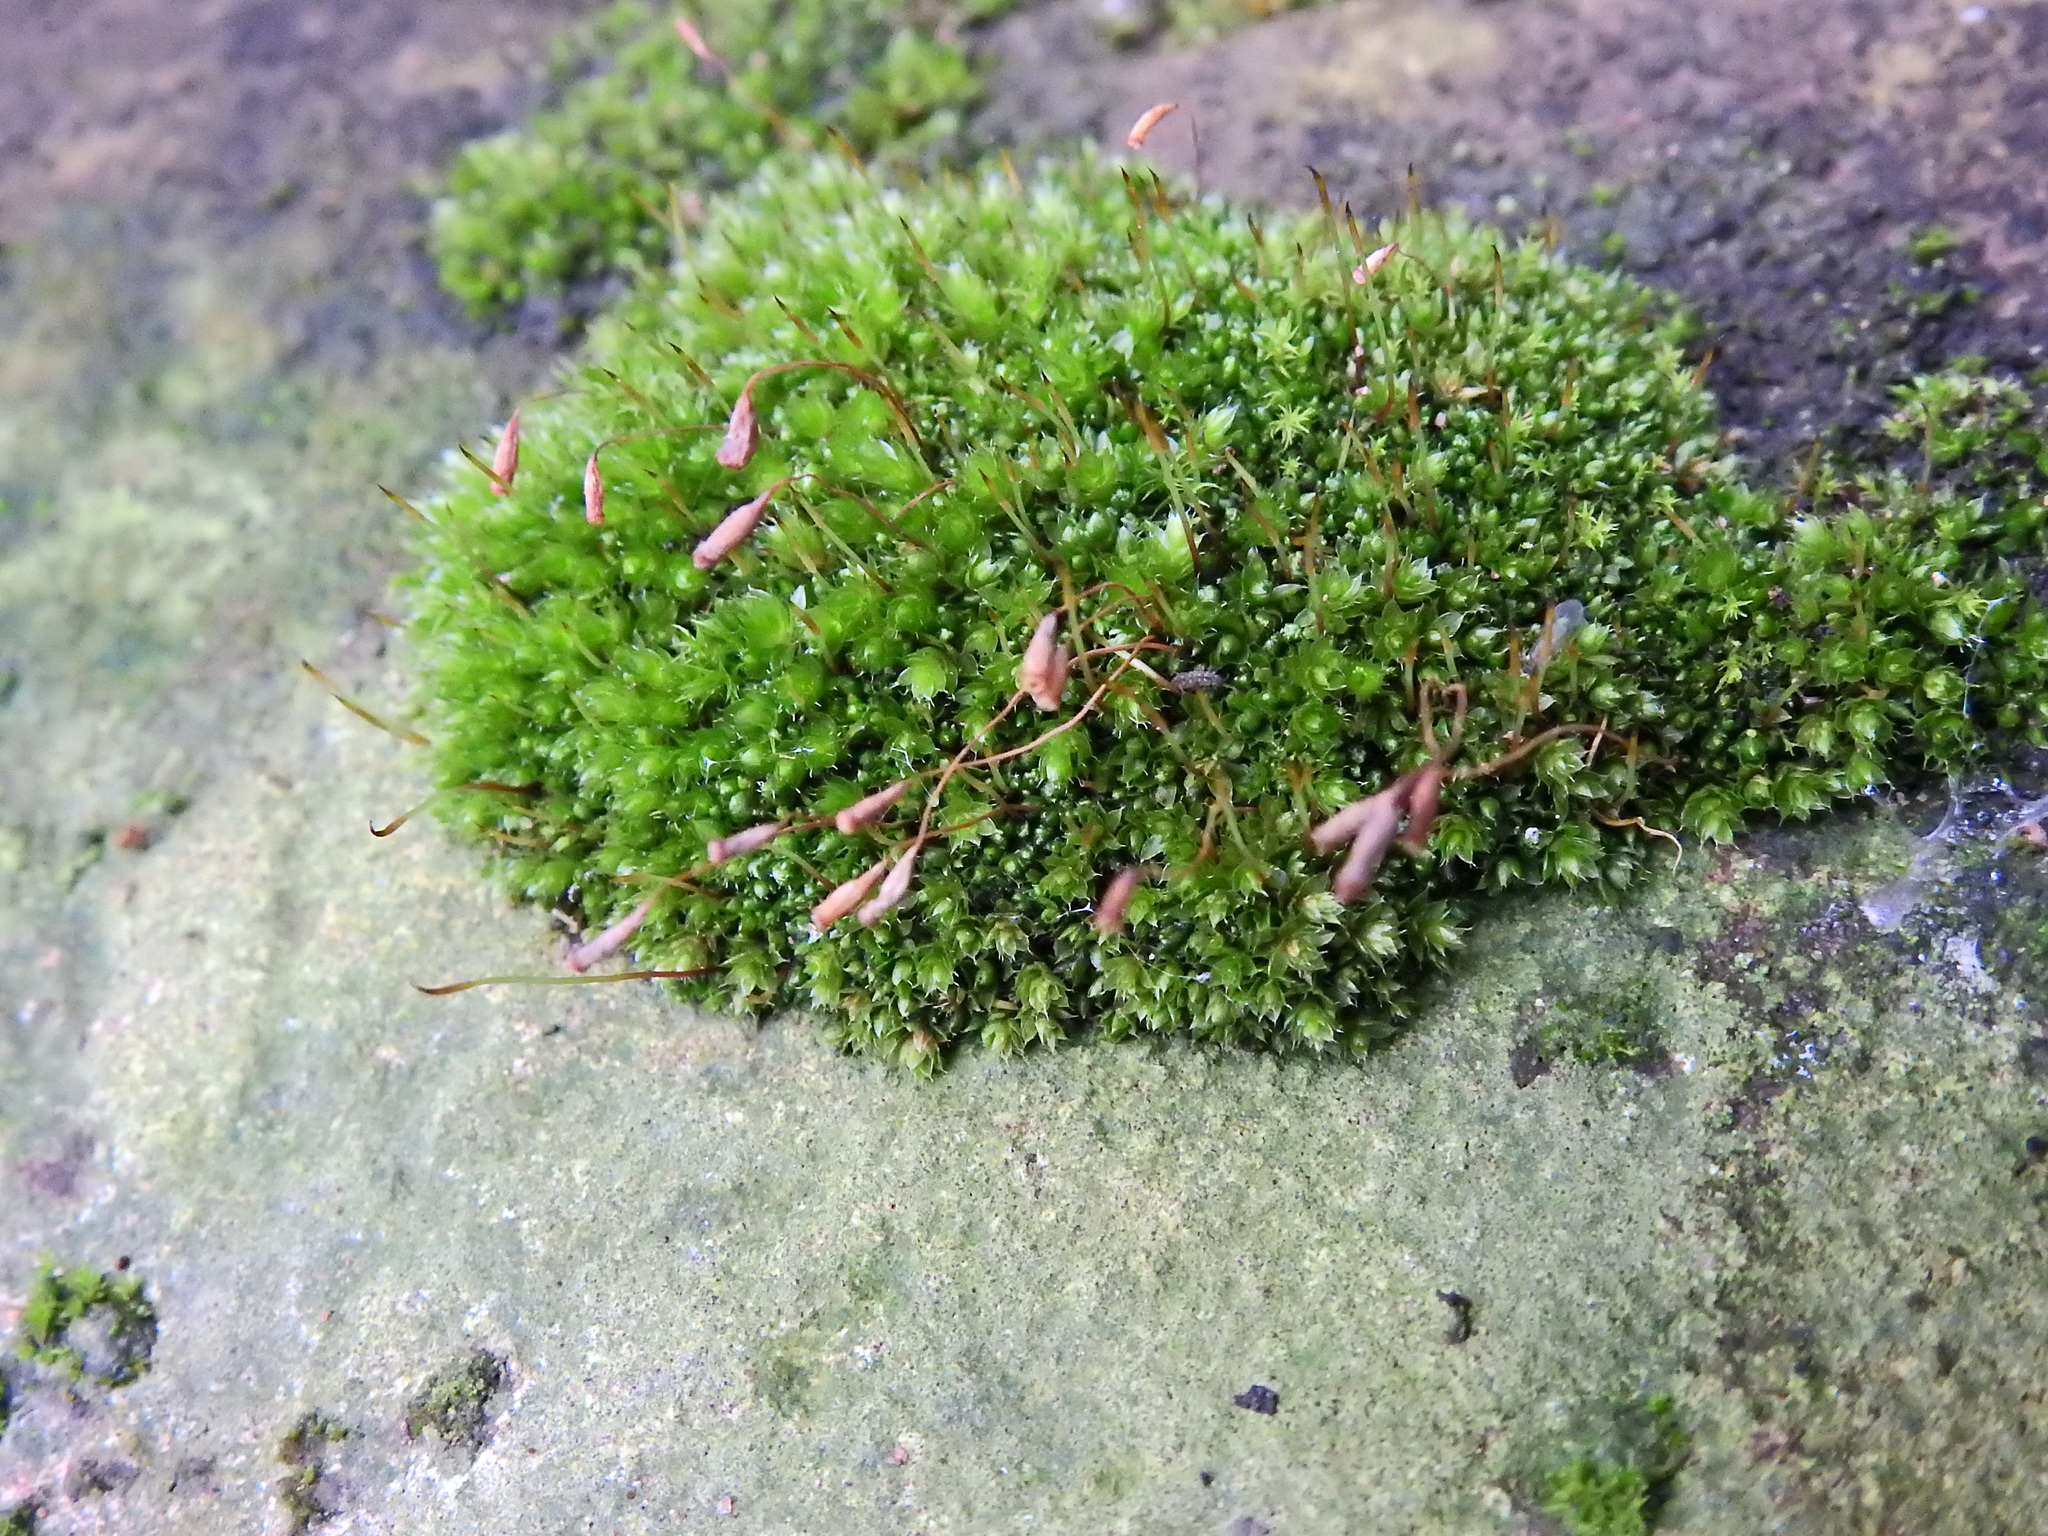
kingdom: Plantae
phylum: Bryophyta
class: Bryopsida
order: Bryales
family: Bryaceae
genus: Rosulabryum
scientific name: Rosulabryum capillare
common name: Capillary thread-moss
